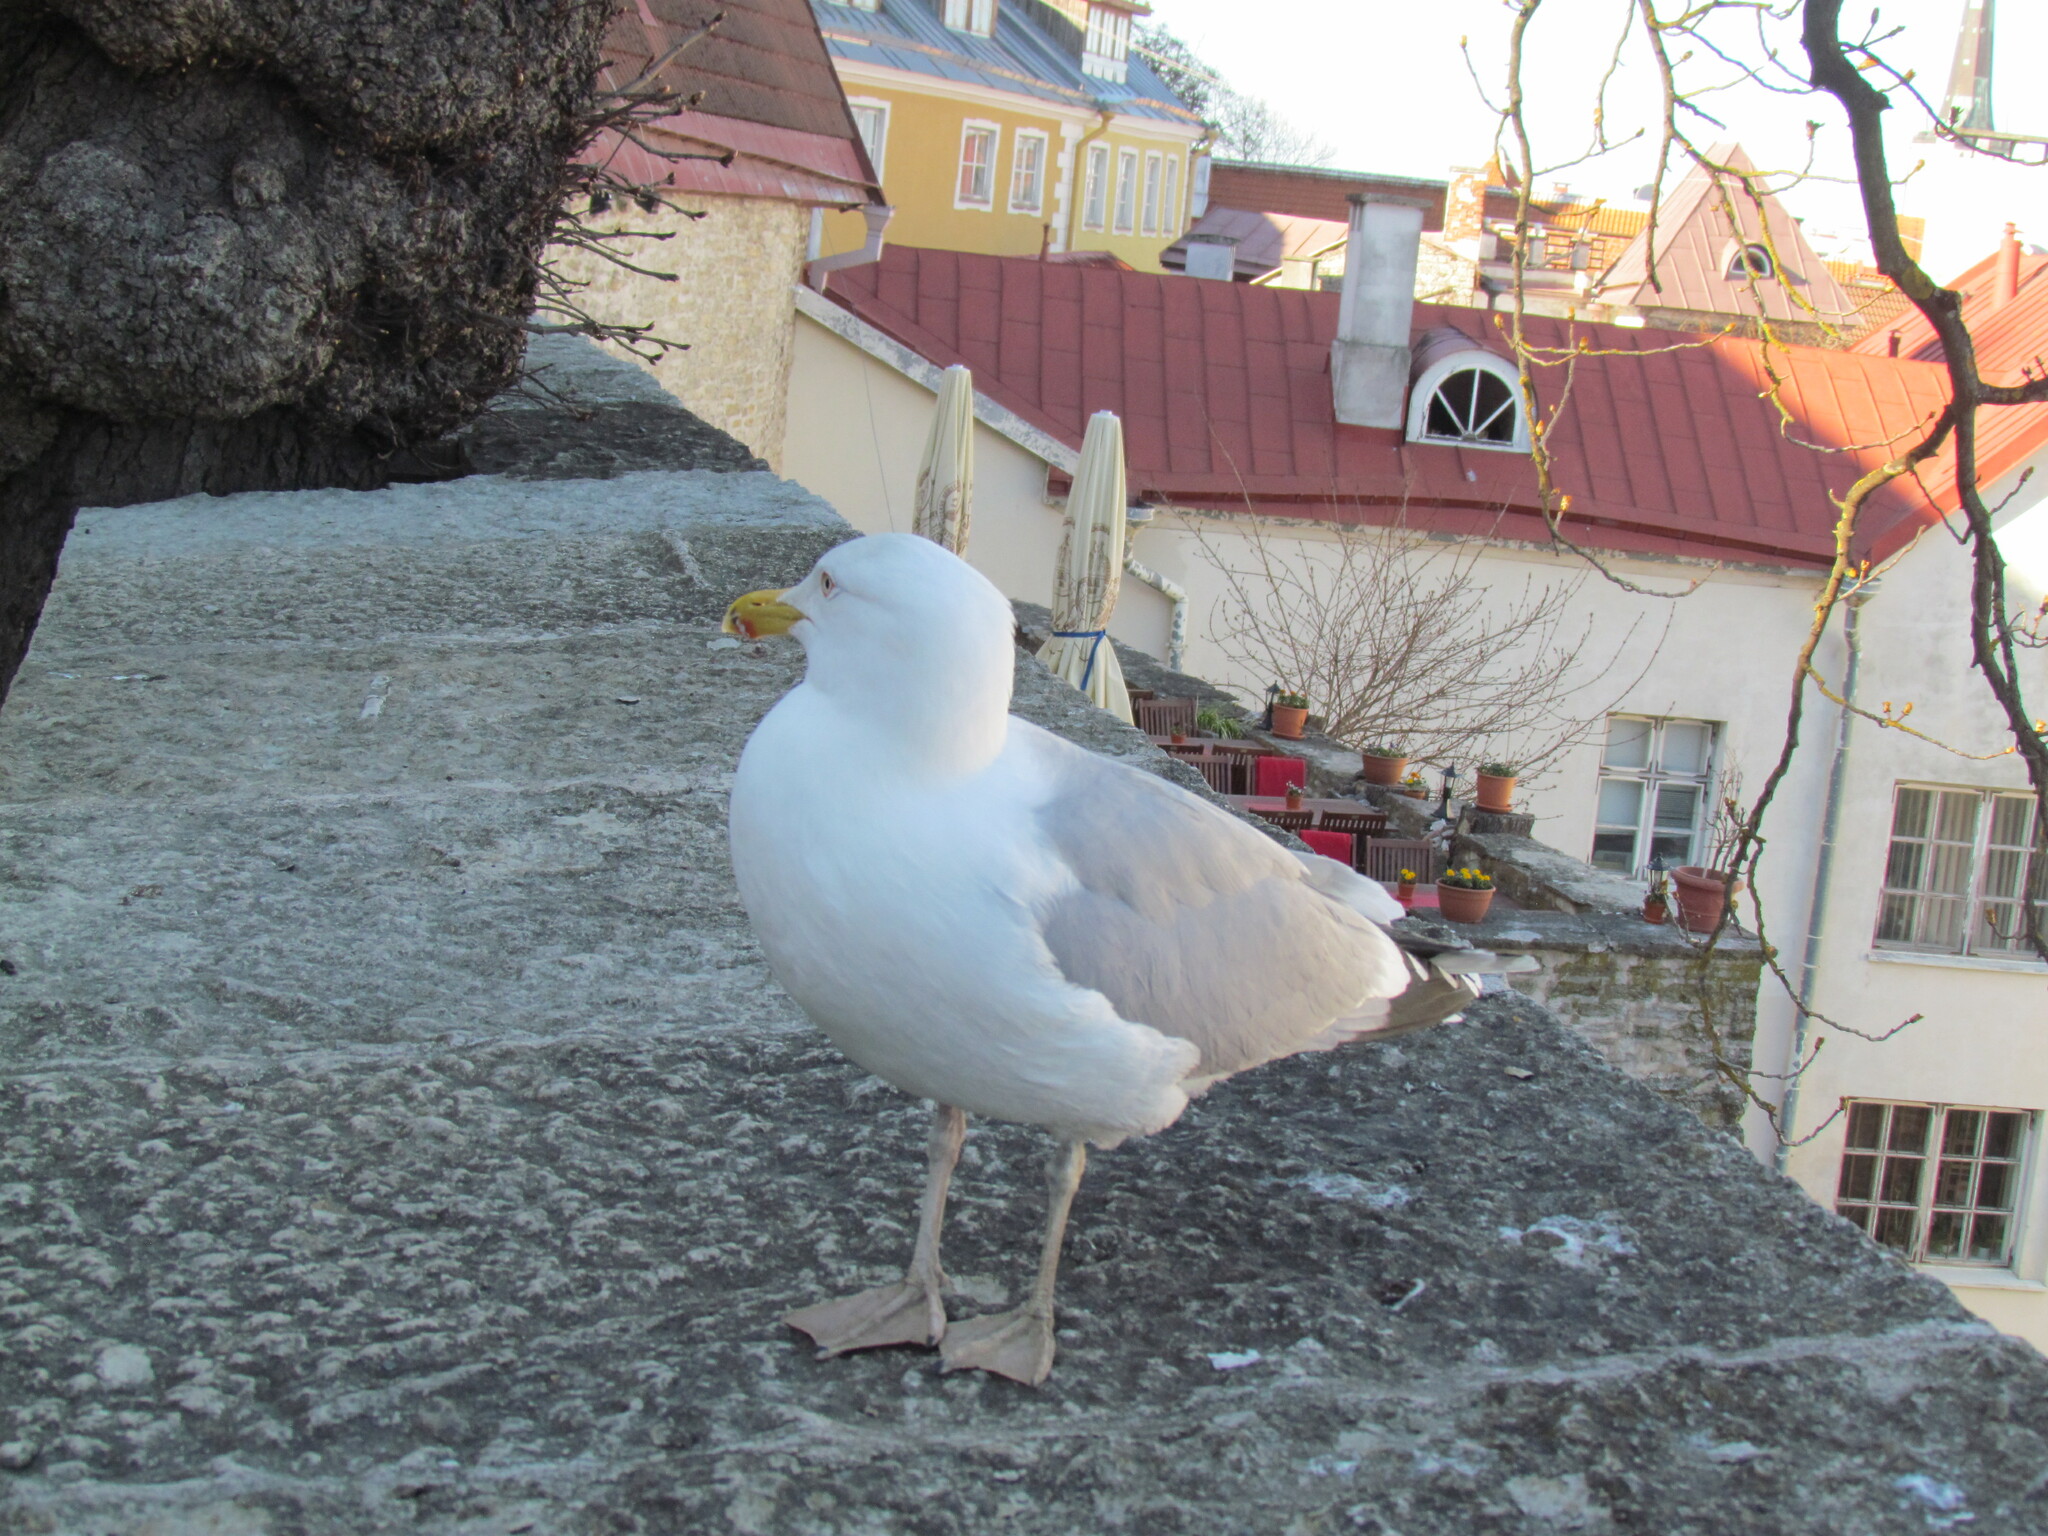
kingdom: Animalia
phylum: Chordata
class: Aves
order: Charadriiformes
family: Laridae
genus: Larus
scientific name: Larus argentatus
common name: Herring gull
